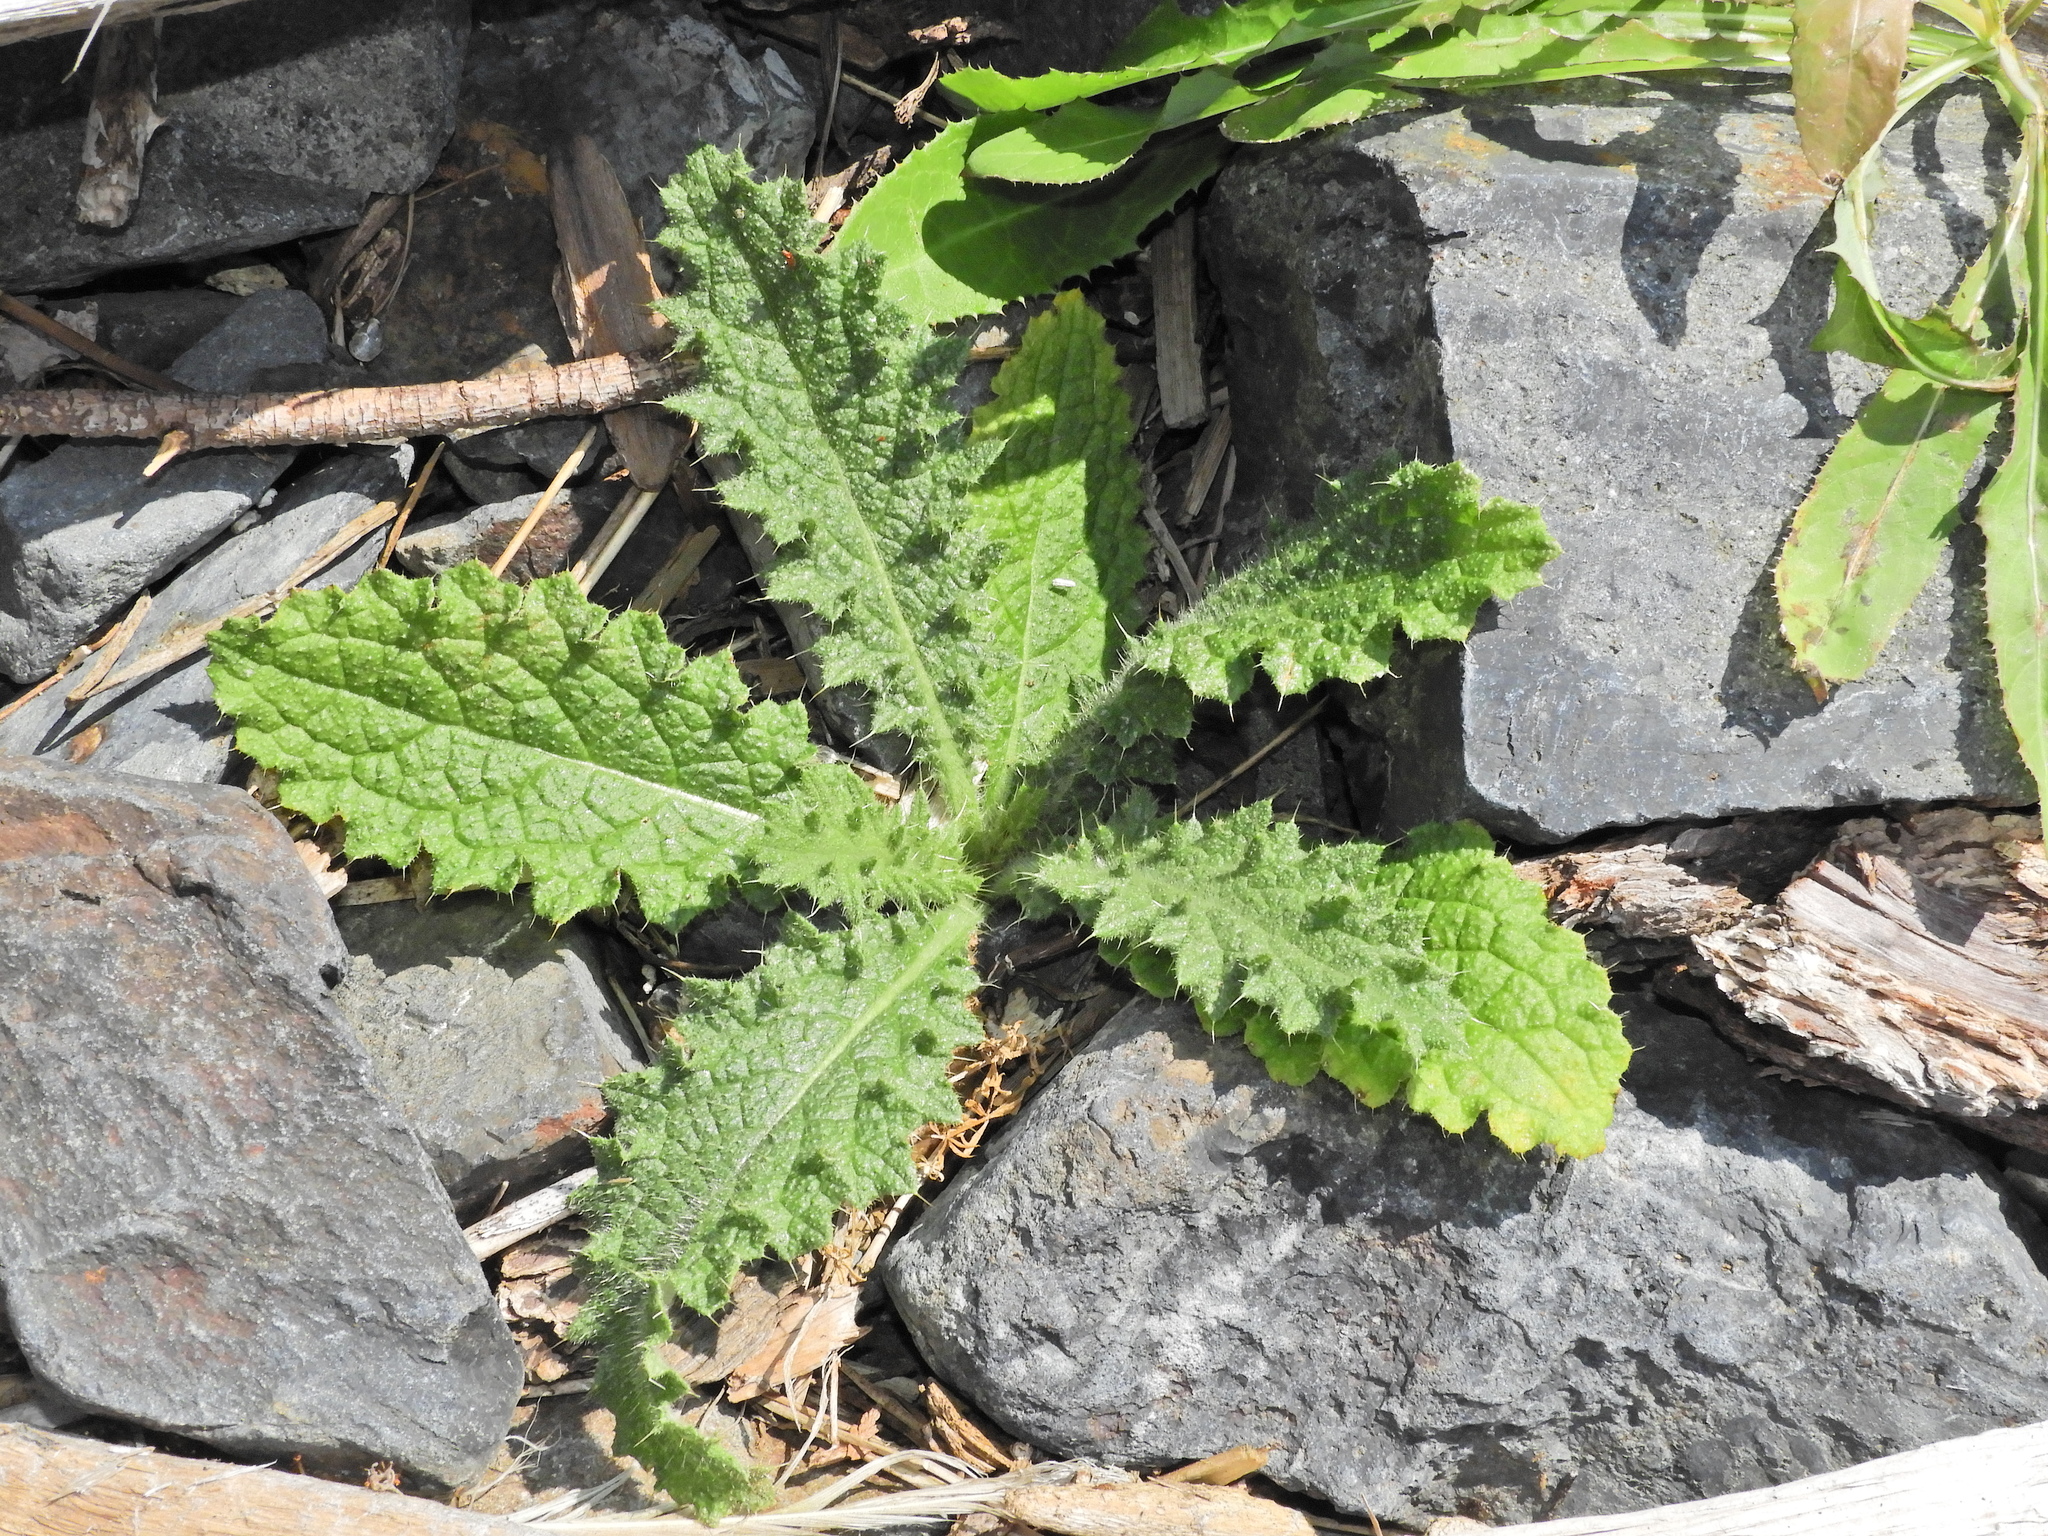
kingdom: Plantae
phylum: Tracheophyta
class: Magnoliopsida
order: Asterales
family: Asteraceae
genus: Cirsium
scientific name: Cirsium vulgare
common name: Bull thistle
